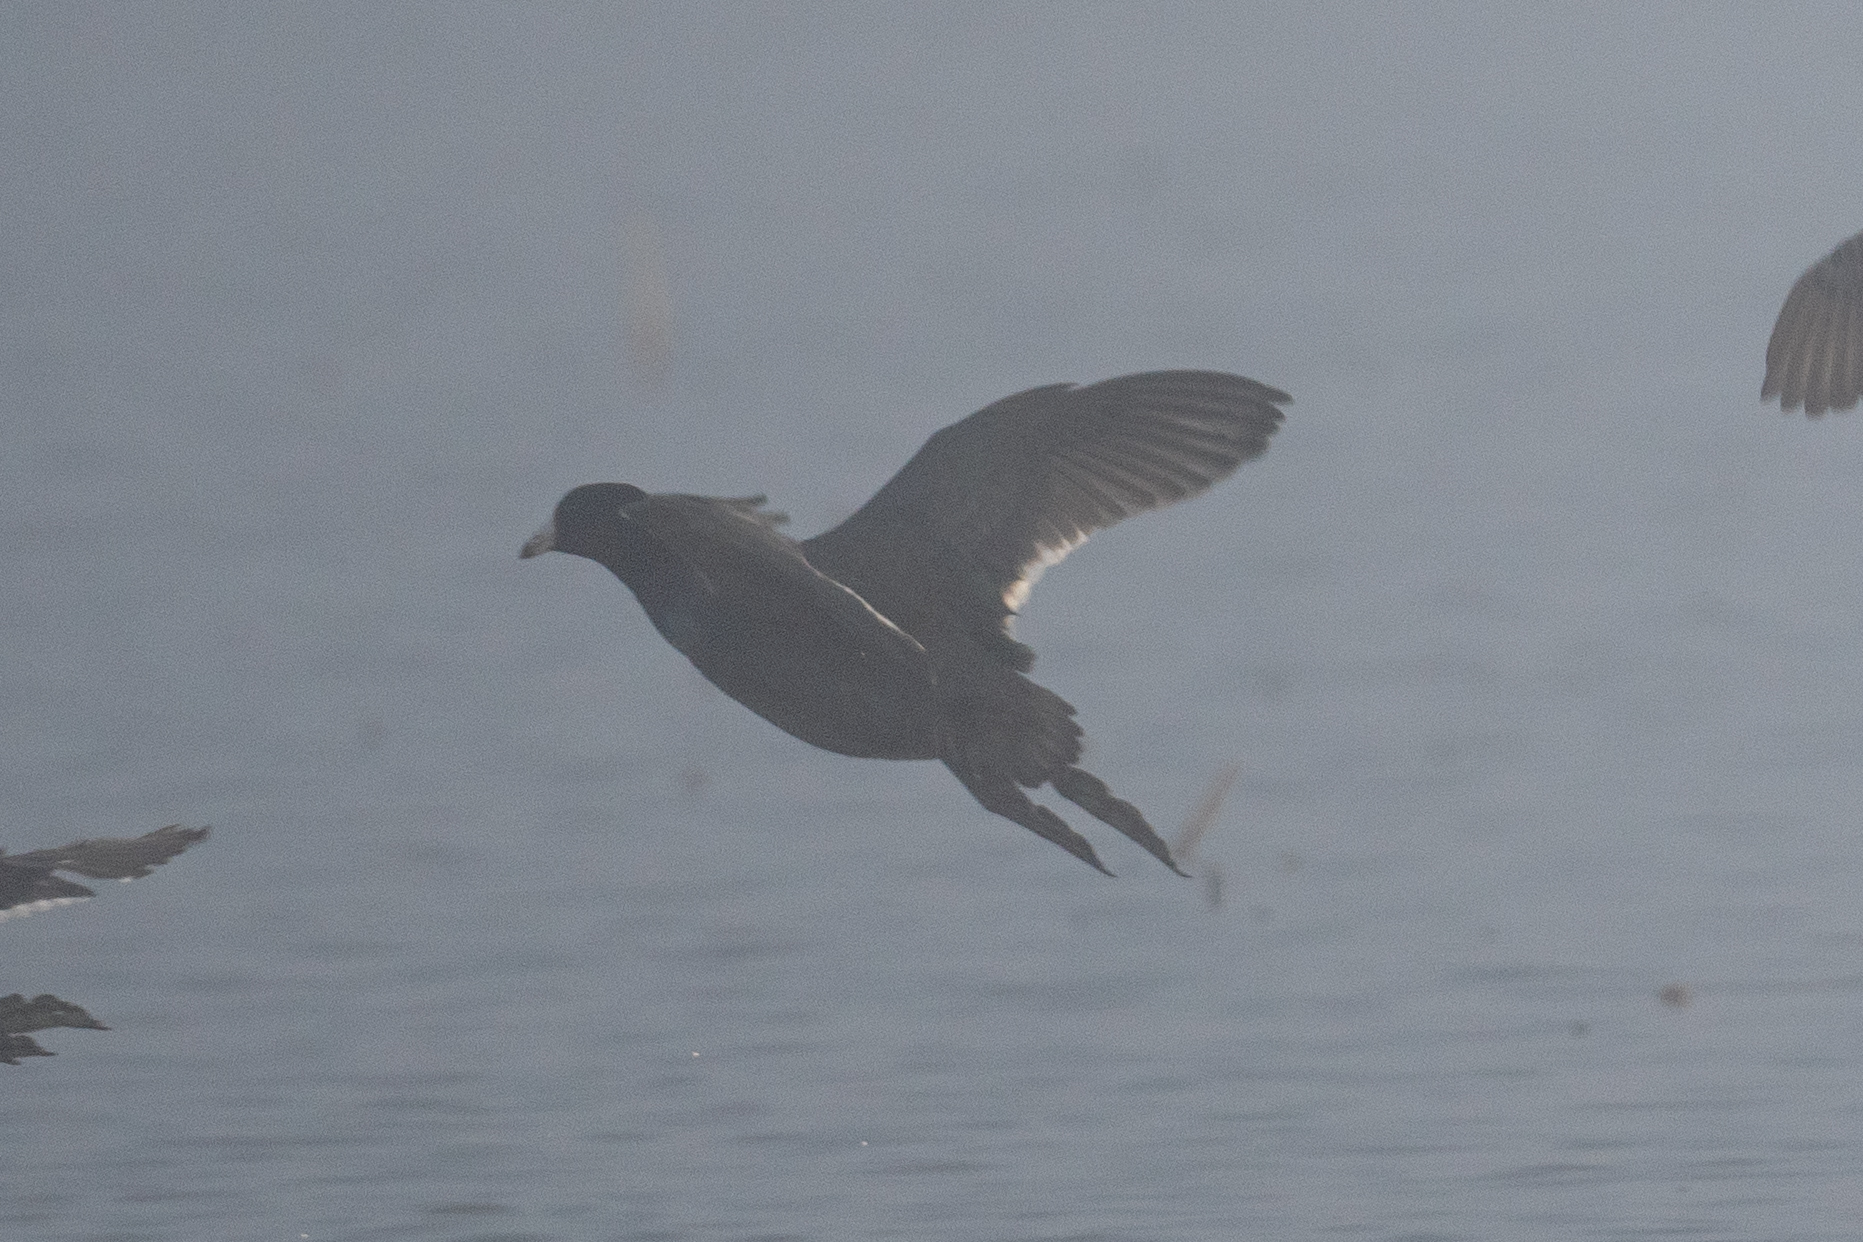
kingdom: Animalia
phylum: Chordata
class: Aves
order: Gruiformes
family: Rallidae
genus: Fulica
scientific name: Fulica americana
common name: American coot
